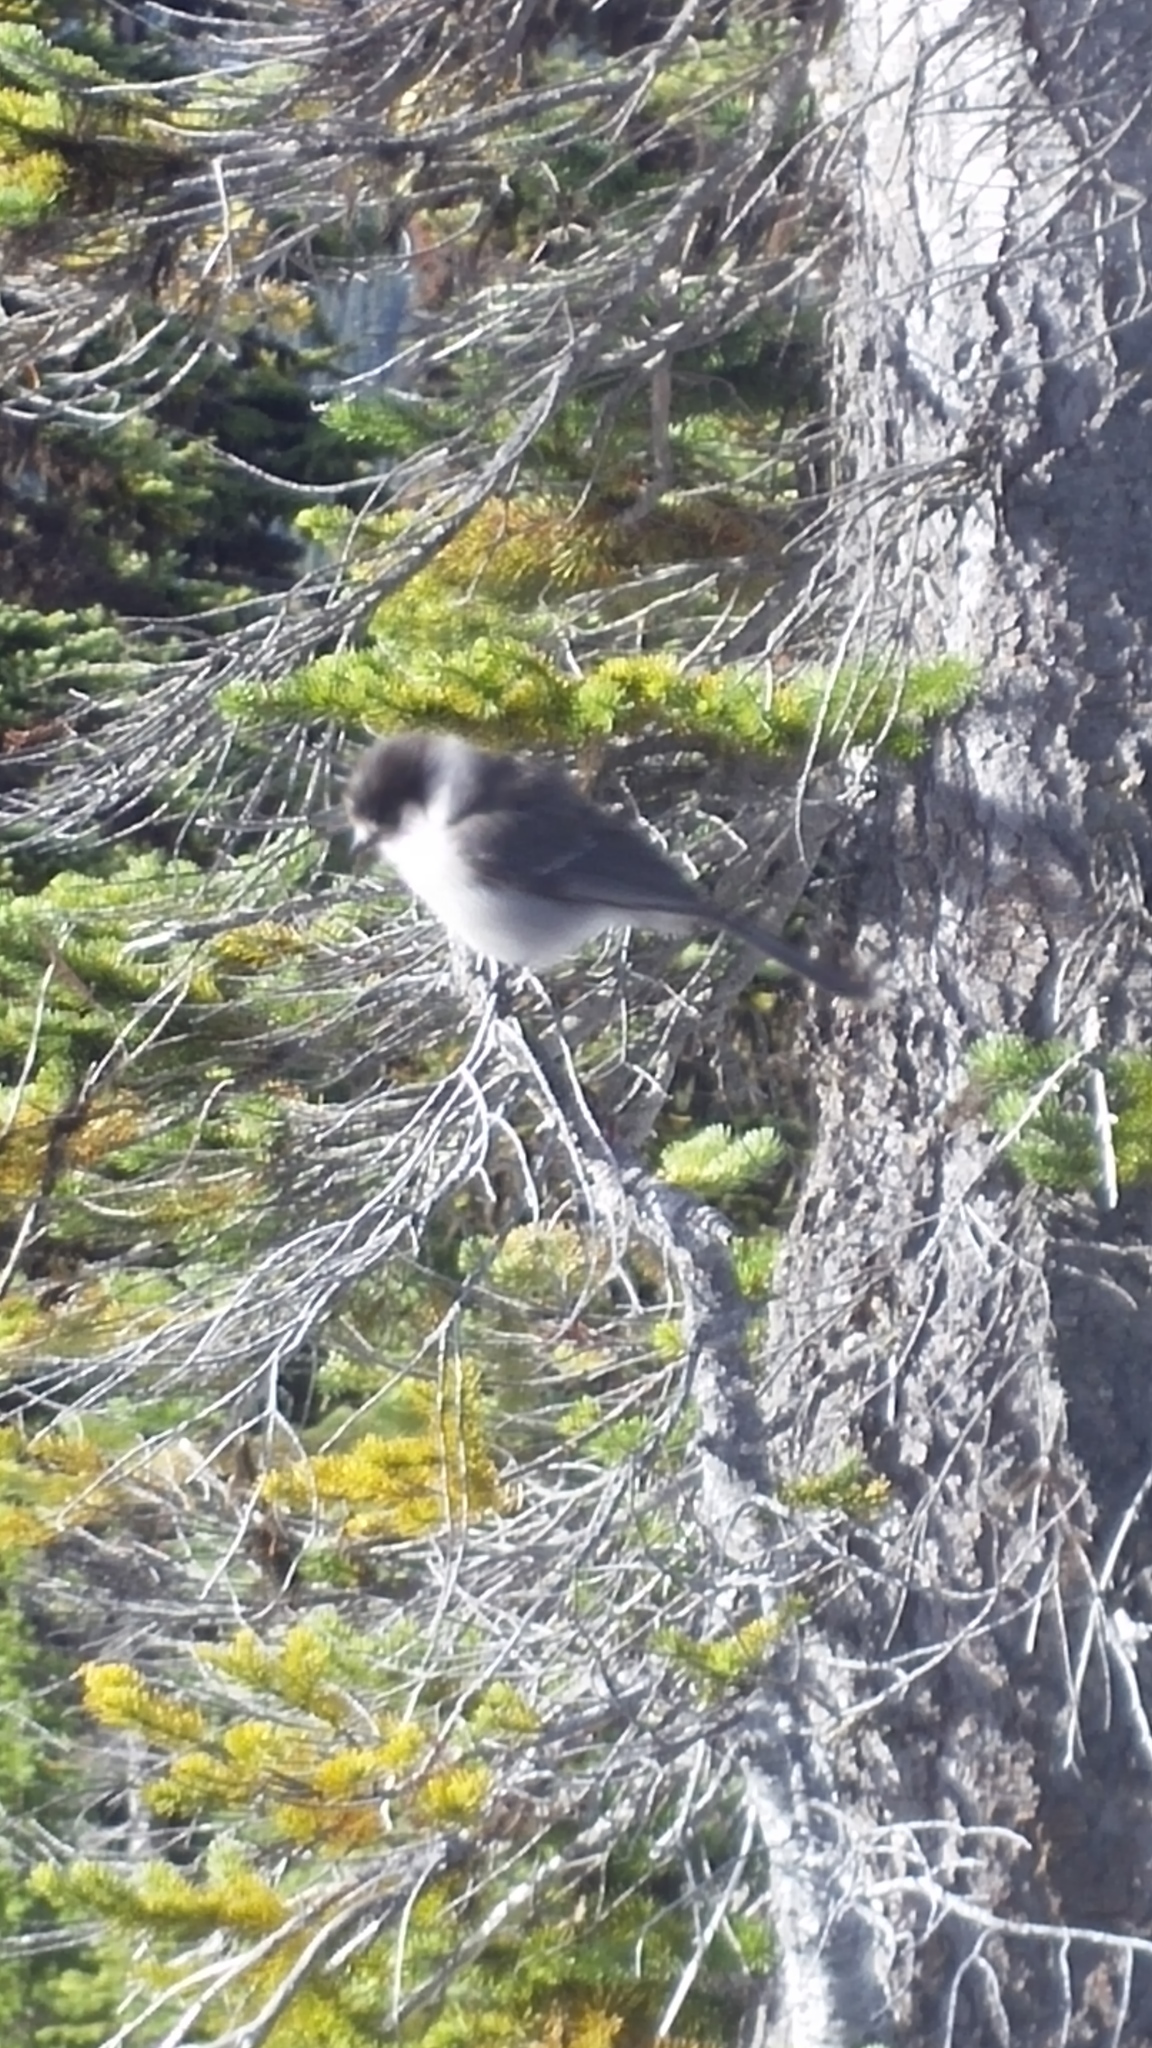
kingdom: Animalia
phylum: Chordata
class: Aves
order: Passeriformes
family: Corvidae
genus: Perisoreus
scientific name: Perisoreus canadensis
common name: Gray jay
